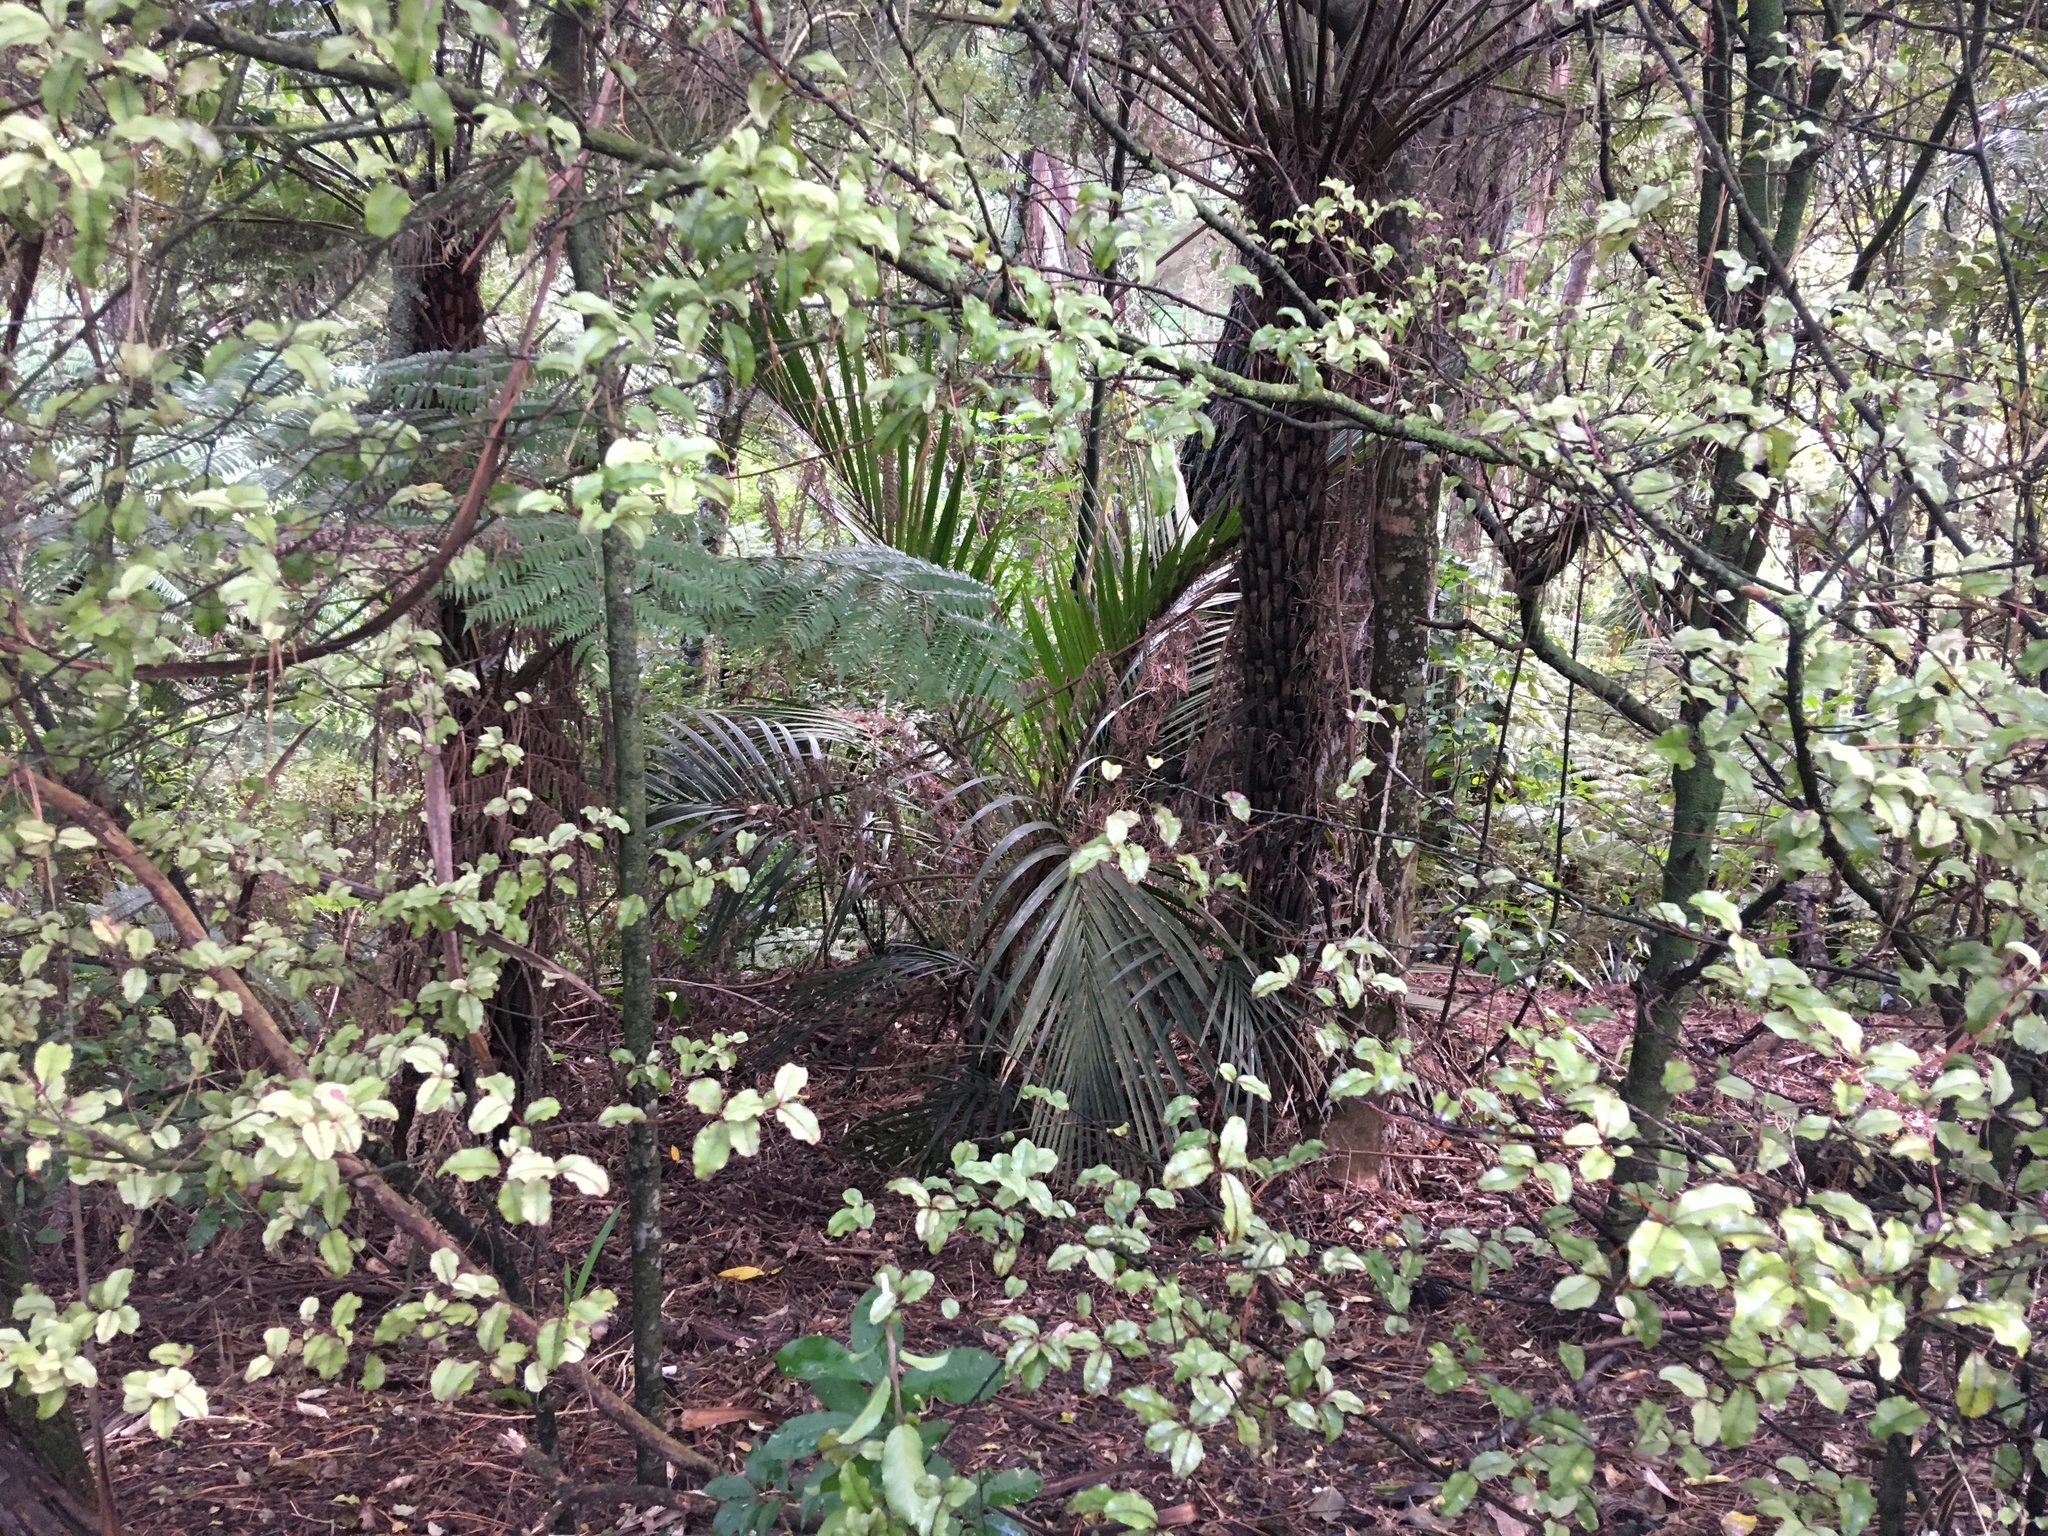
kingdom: Plantae
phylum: Tracheophyta
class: Liliopsida
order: Arecales
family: Arecaceae
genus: Rhopalostylis
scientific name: Rhopalostylis sapida
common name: Feather-duster palm
